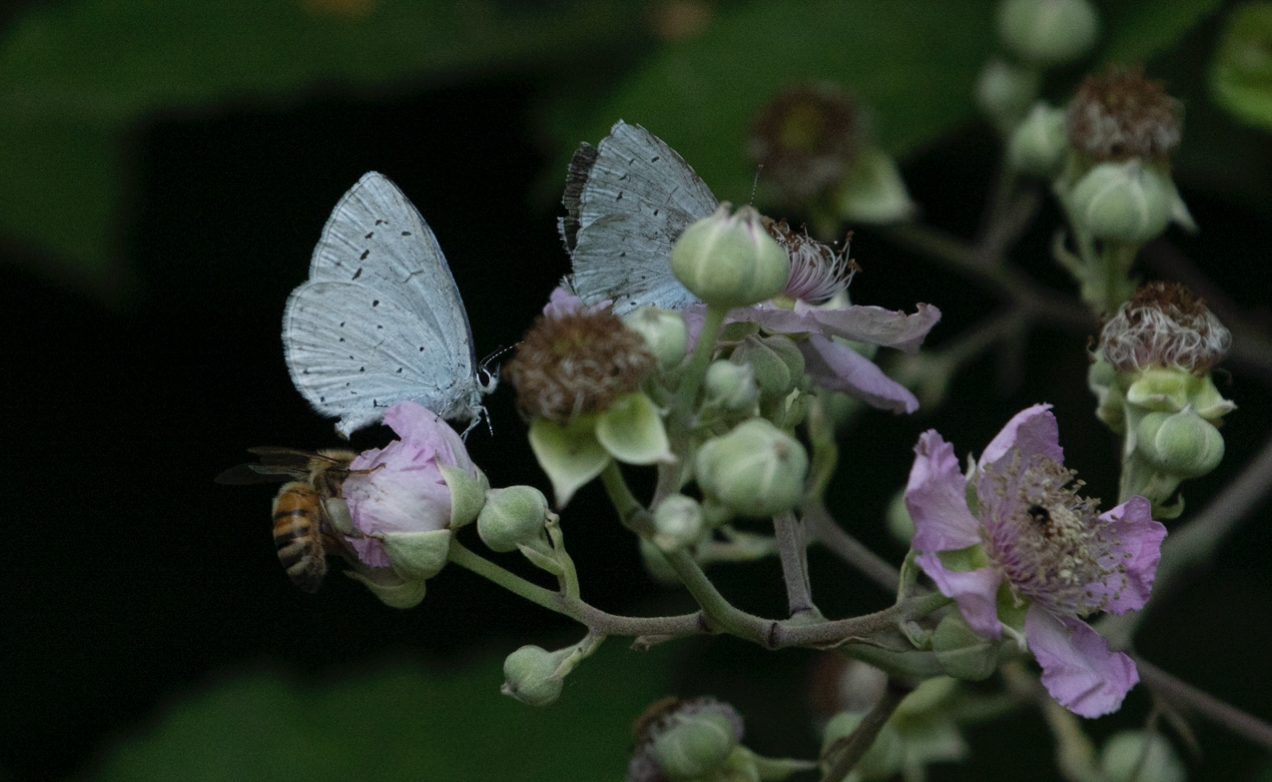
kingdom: Animalia
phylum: Arthropoda
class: Insecta
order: Lepidoptera
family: Lycaenidae
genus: Celastrina
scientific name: Celastrina argiolus
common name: Holly blue
